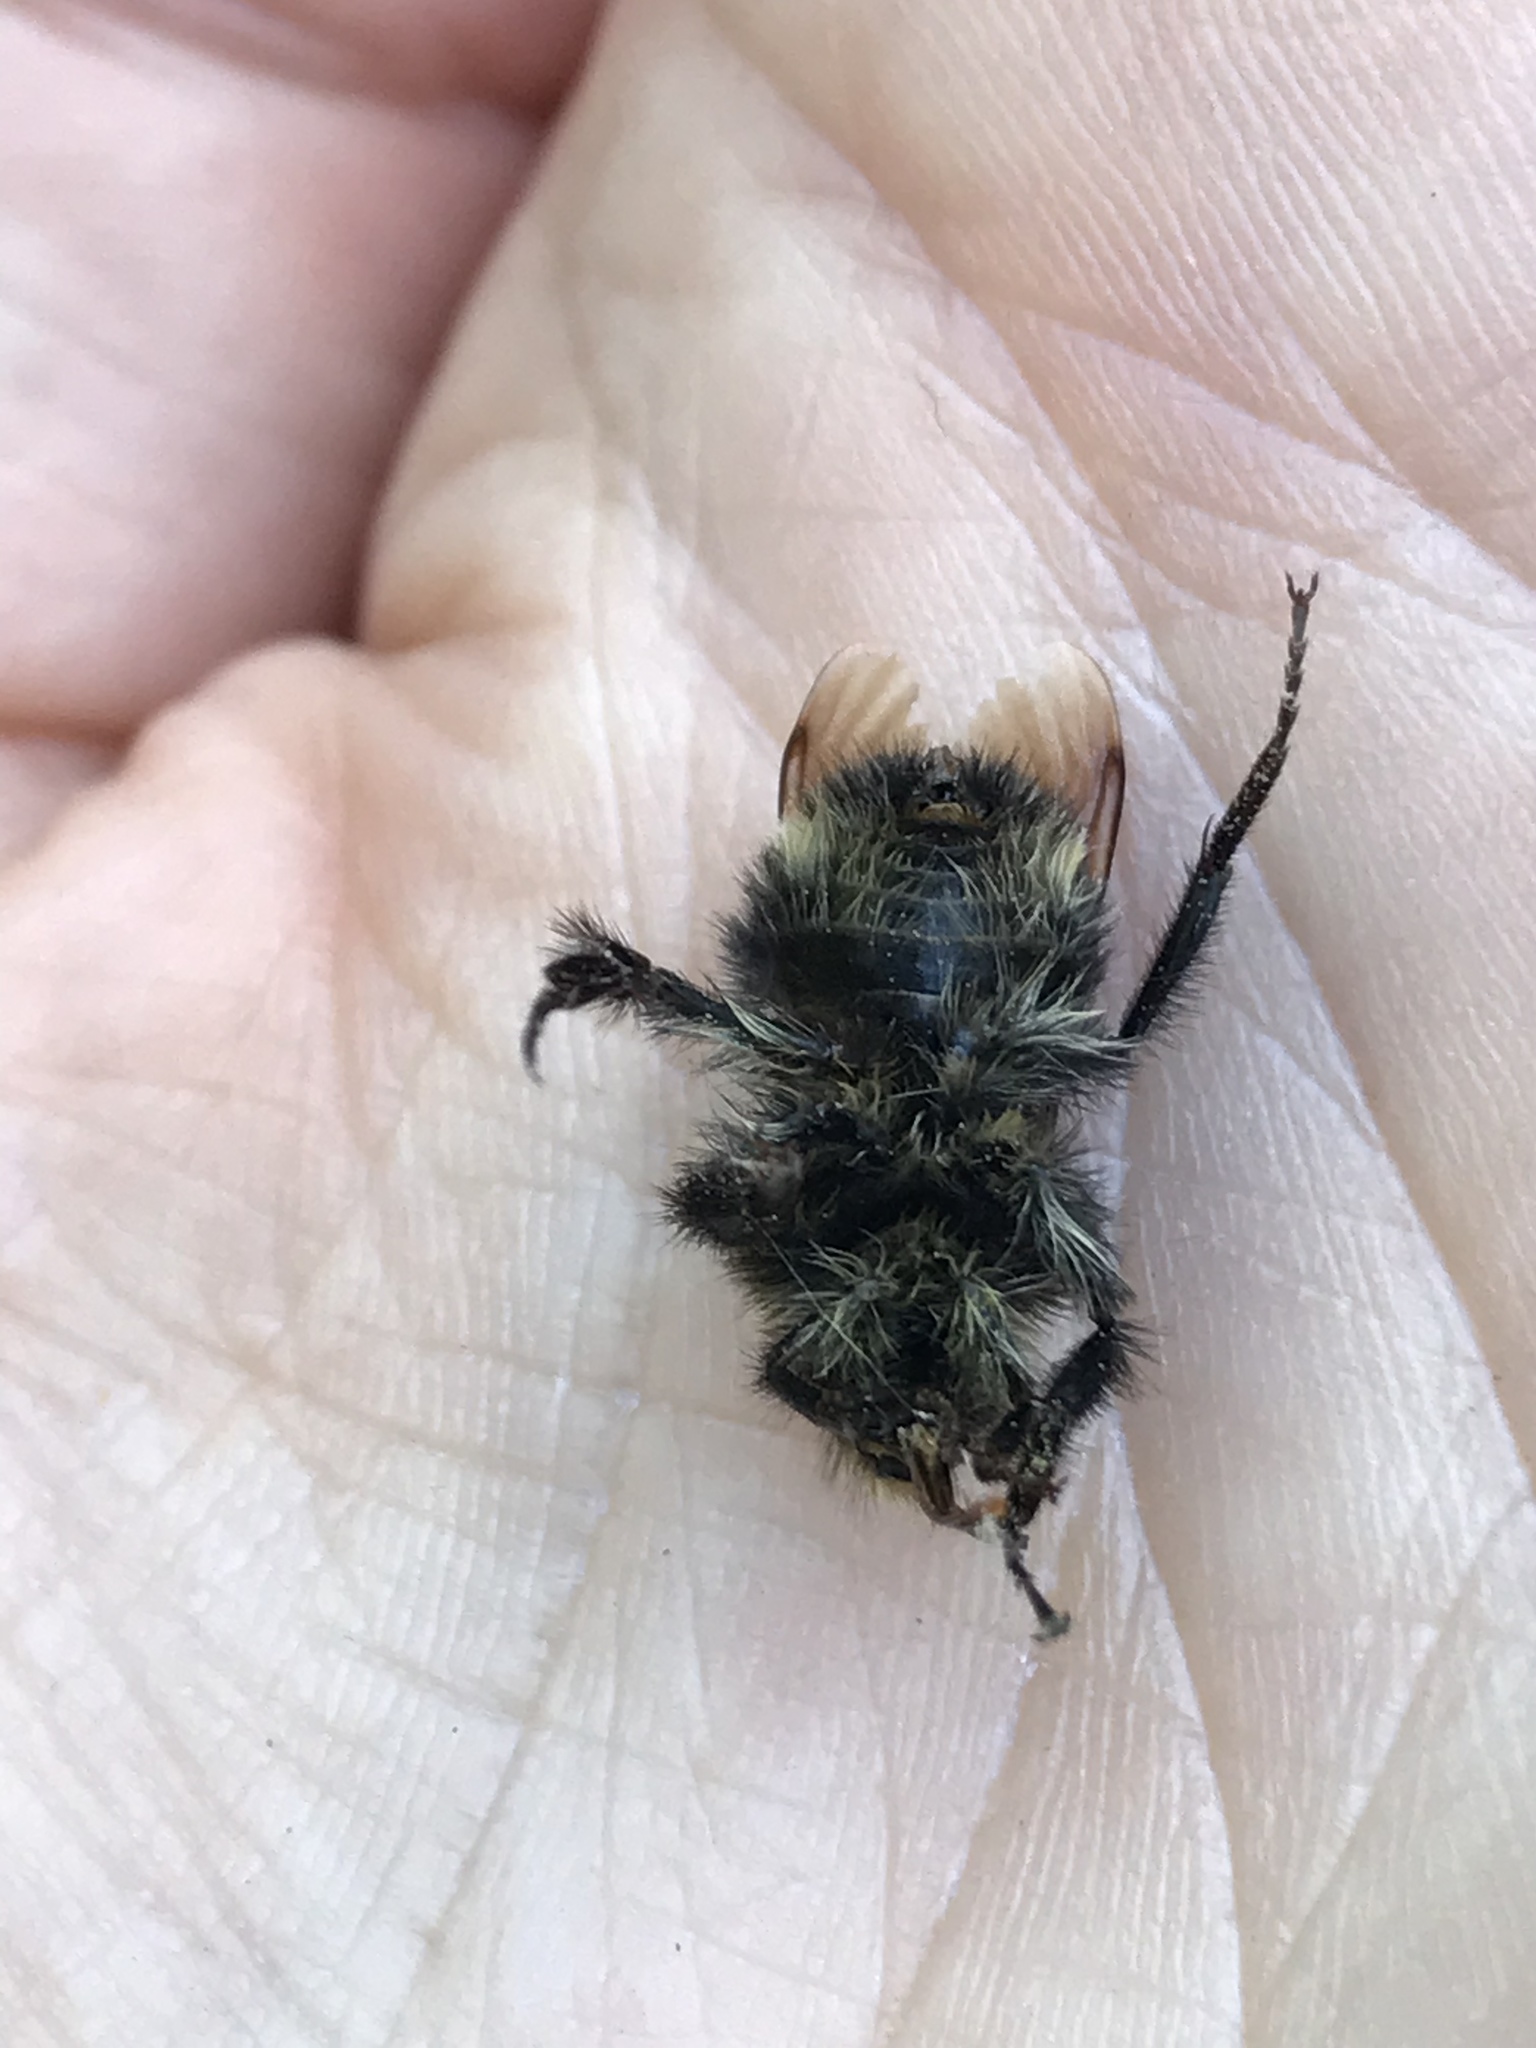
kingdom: Animalia
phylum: Arthropoda
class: Insecta
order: Hymenoptera
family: Apidae
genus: Bombus
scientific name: Bombus caliginosus
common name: Obscure bumble bee
